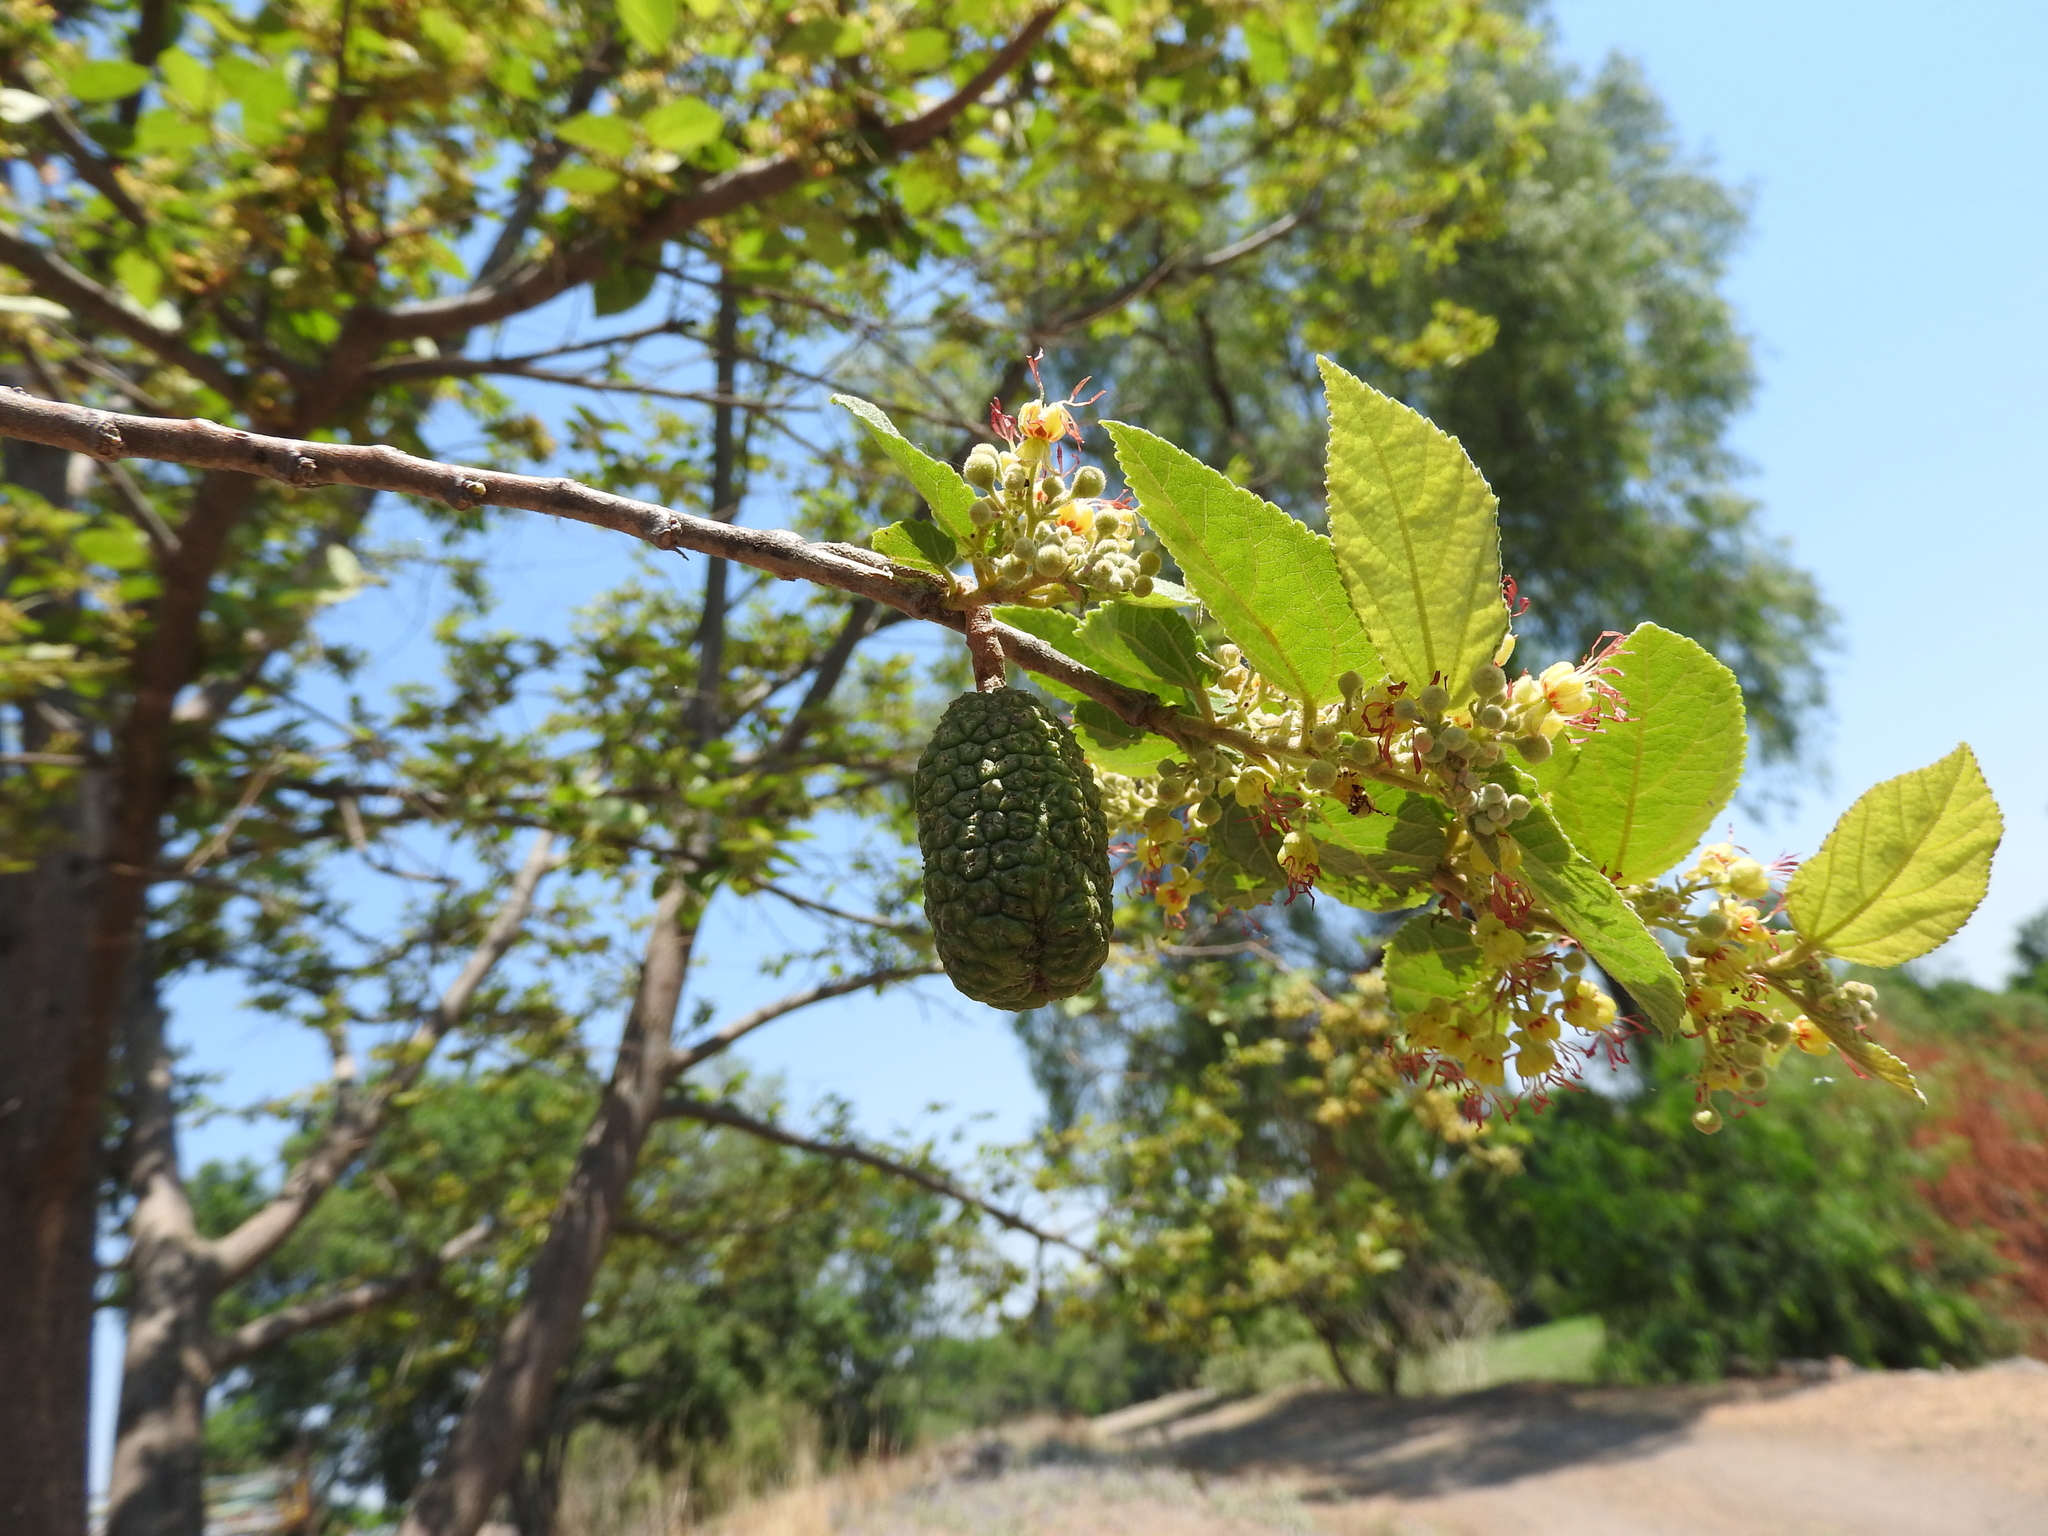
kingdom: Plantae
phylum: Tracheophyta
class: Magnoliopsida
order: Malvales
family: Malvaceae
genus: Guazuma
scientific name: Guazuma ulmifolia
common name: Bastard-cedar
